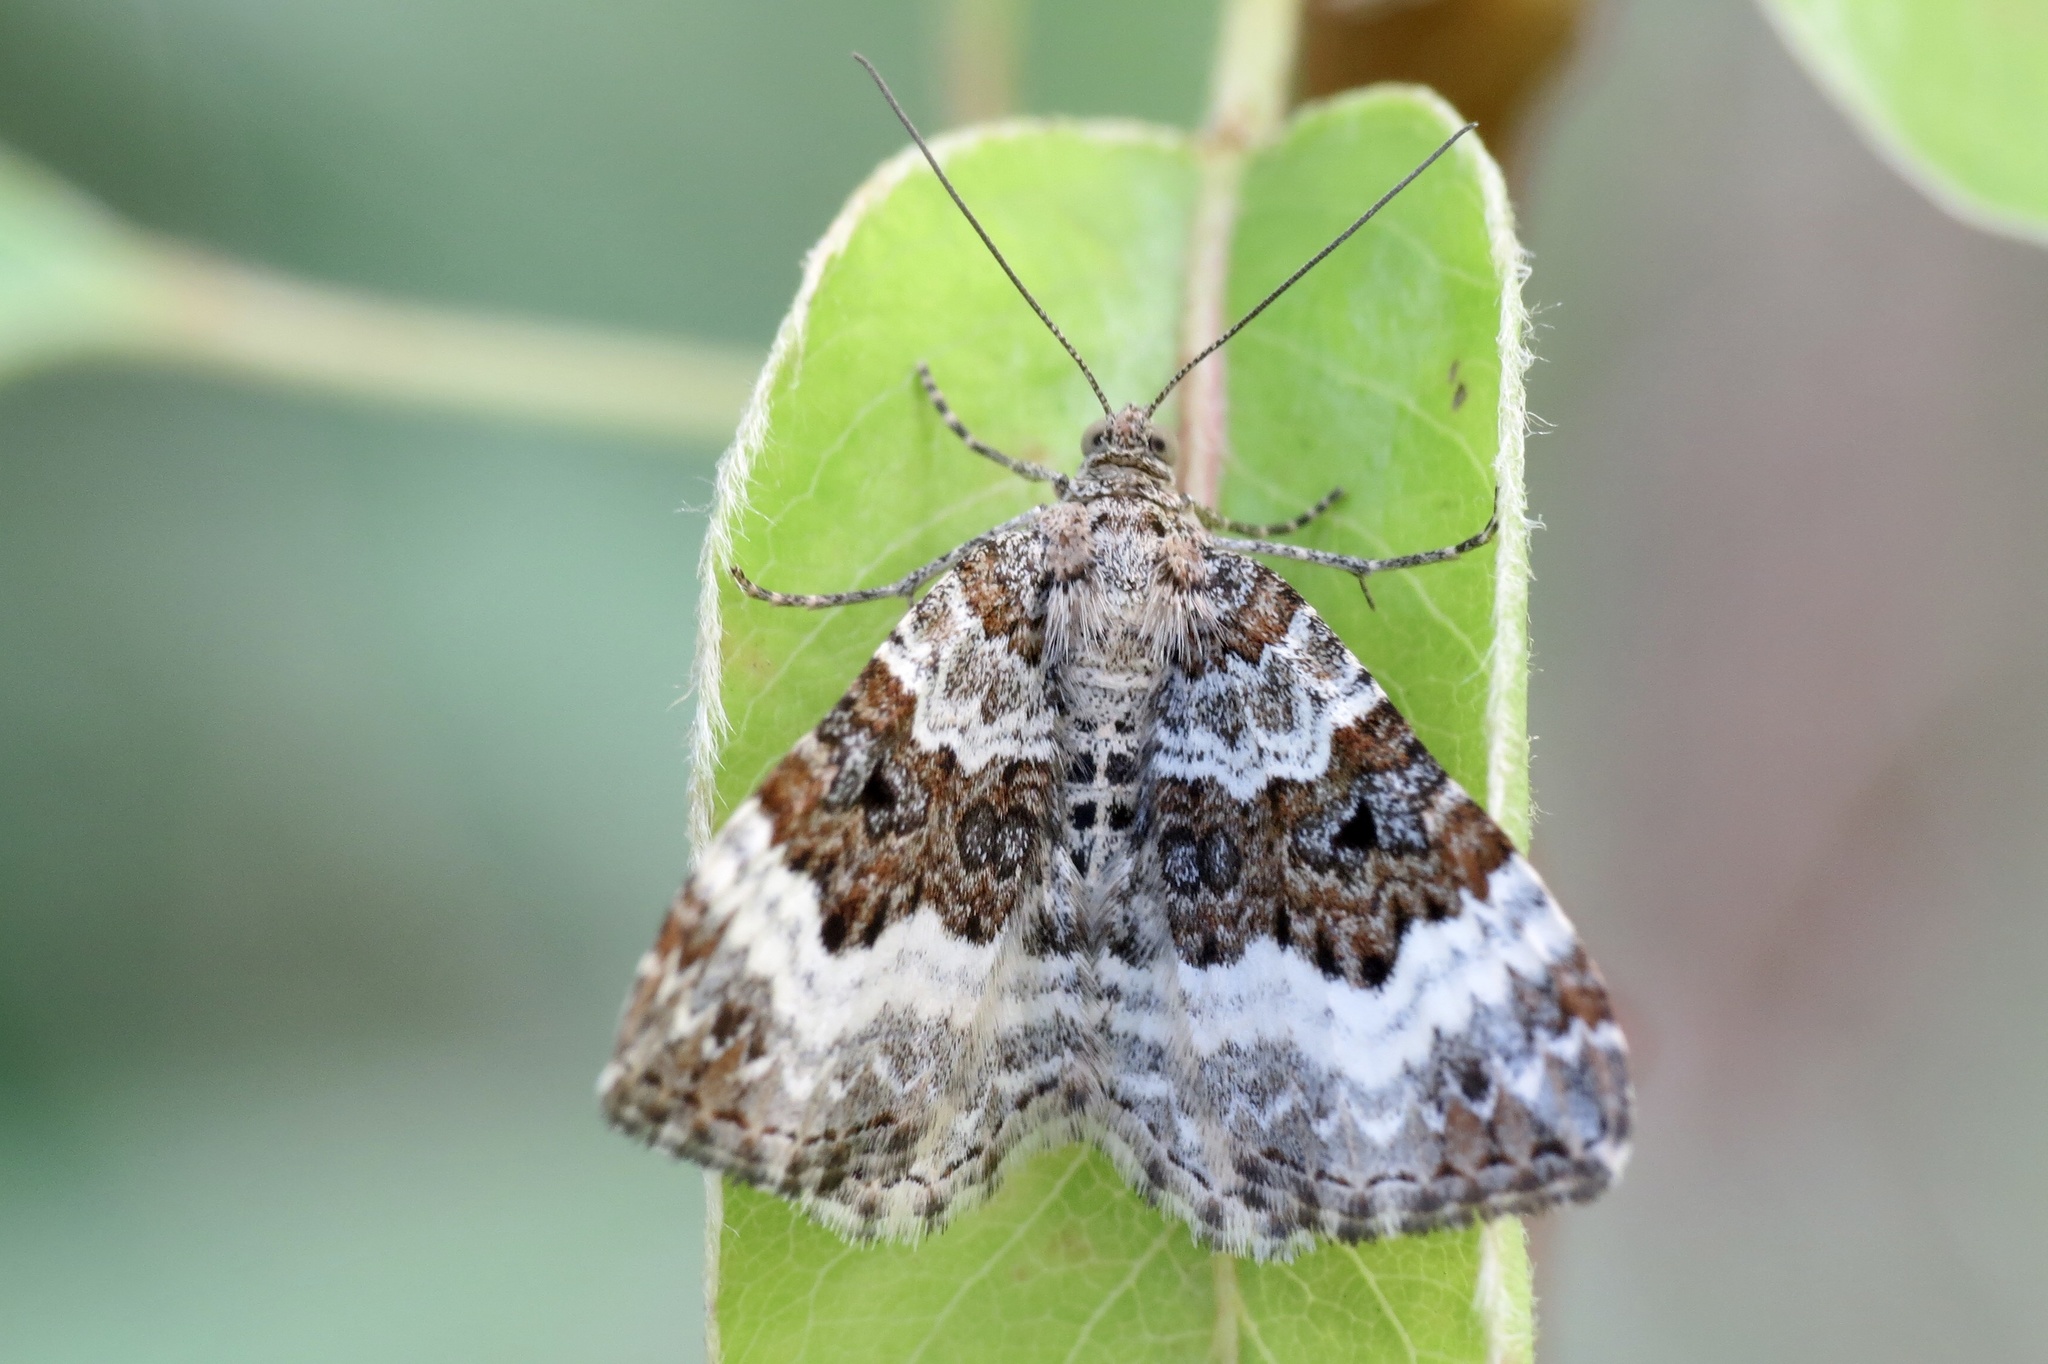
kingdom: Animalia
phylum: Arthropoda
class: Insecta
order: Lepidoptera
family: Geometridae
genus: Xanthorhoe
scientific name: Xanthorhoe spadicearia
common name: Red twin-spot carpet
